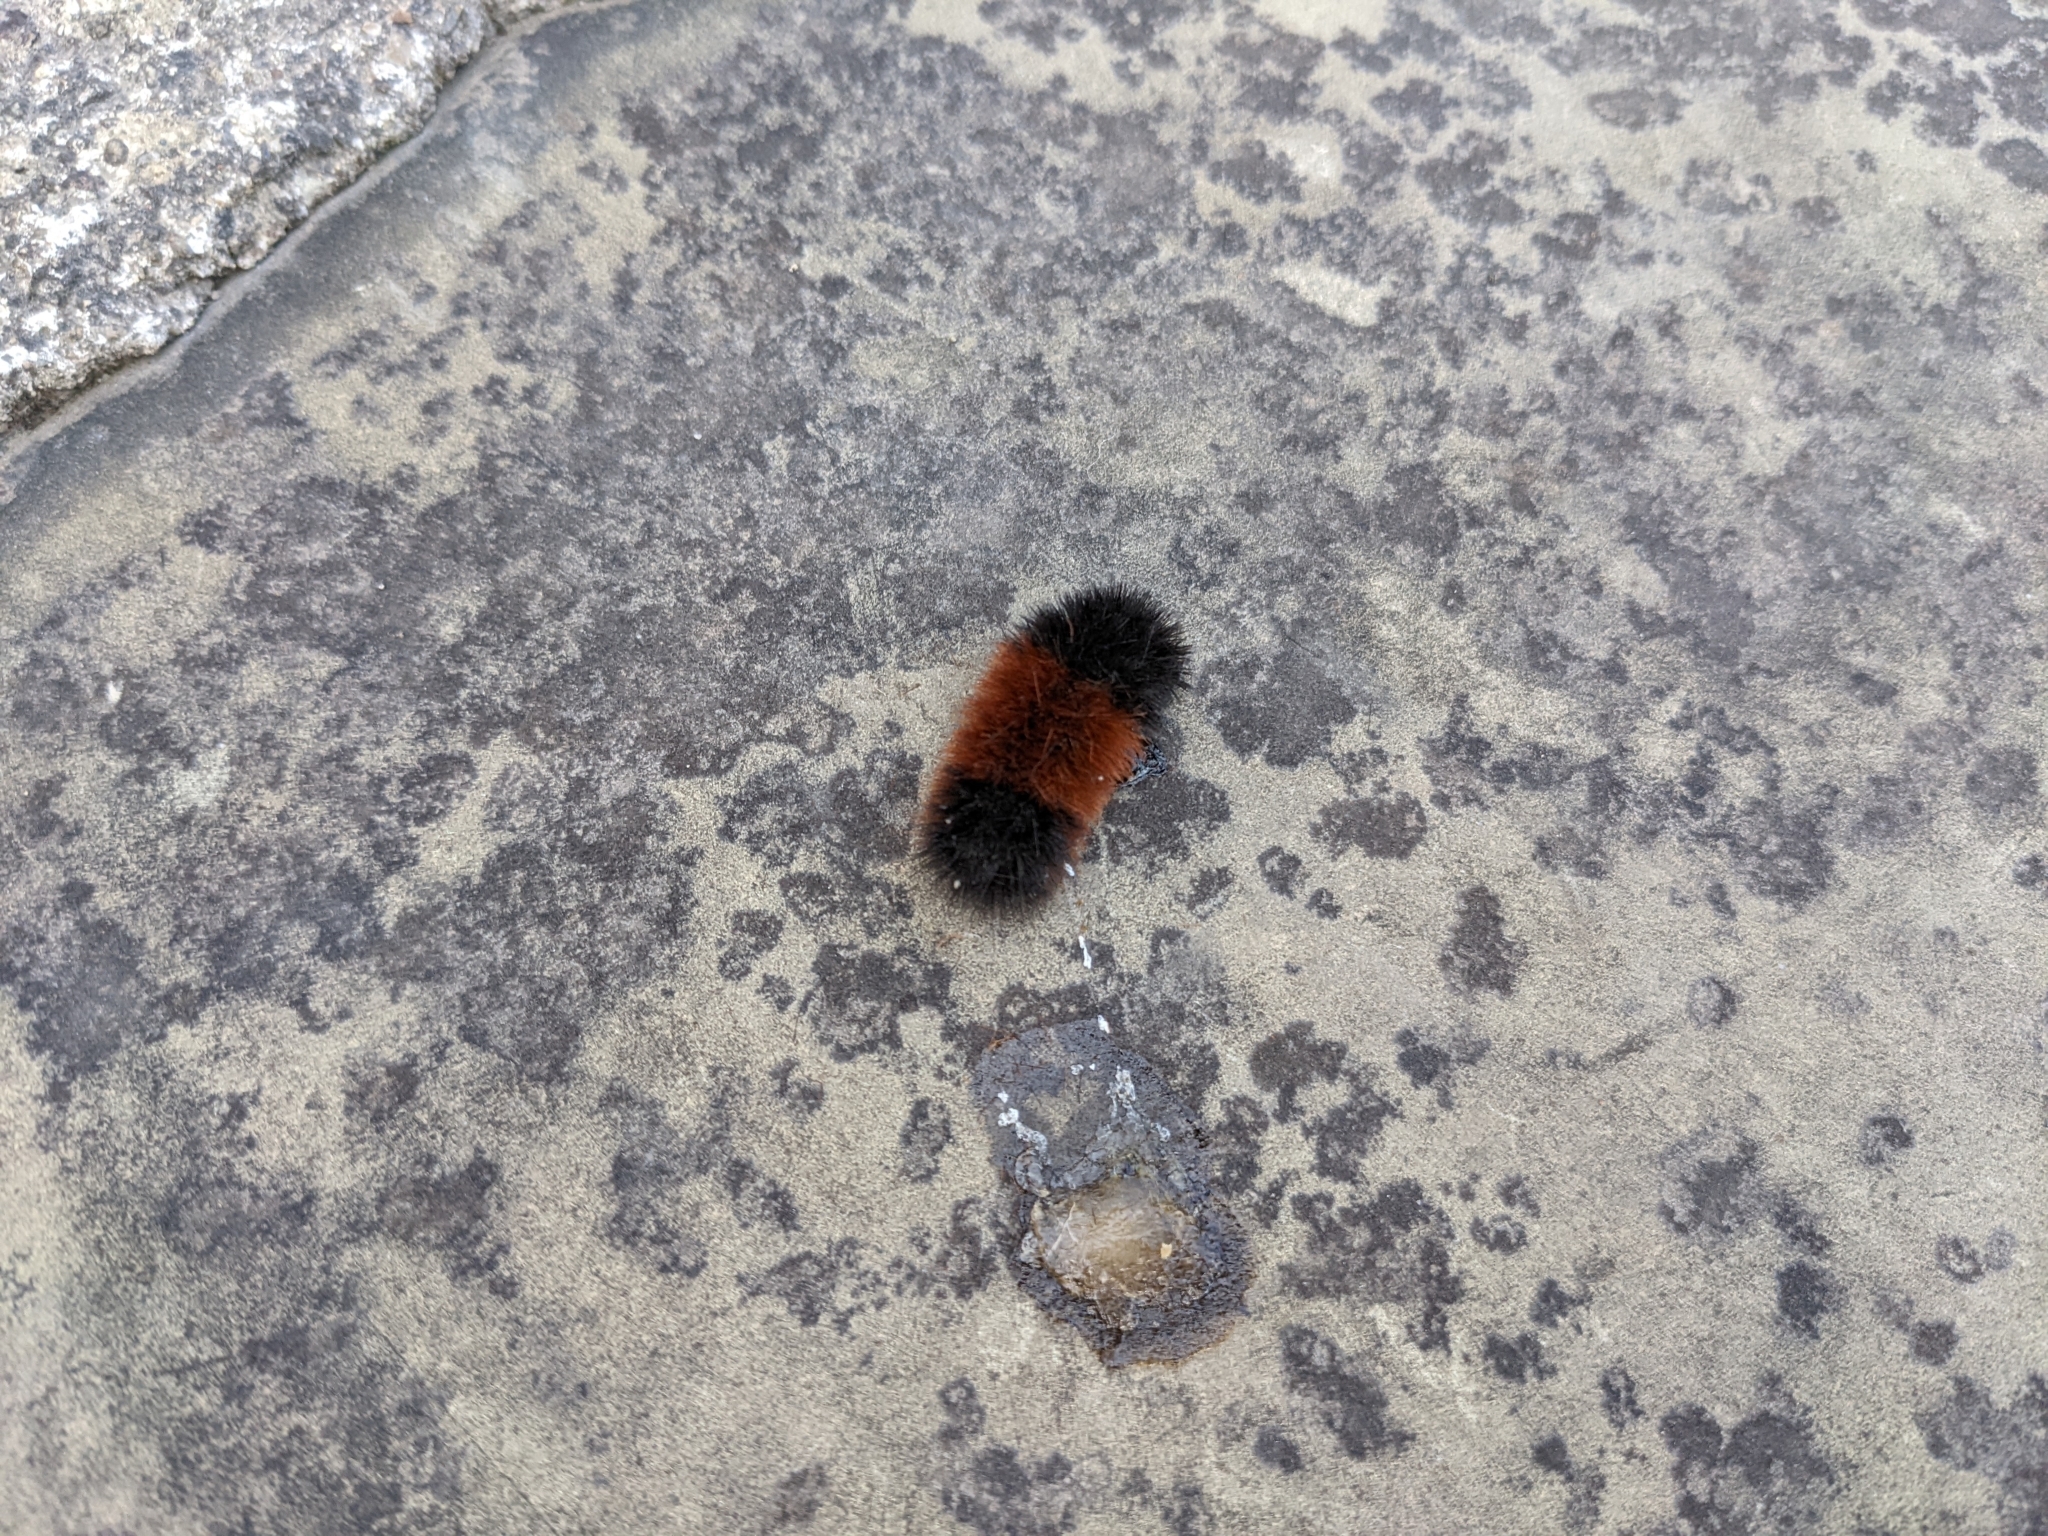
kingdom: Animalia
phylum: Arthropoda
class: Insecta
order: Lepidoptera
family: Erebidae
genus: Pyrrharctia
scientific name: Pyrrharctia isabella
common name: Isabella tiger moth
